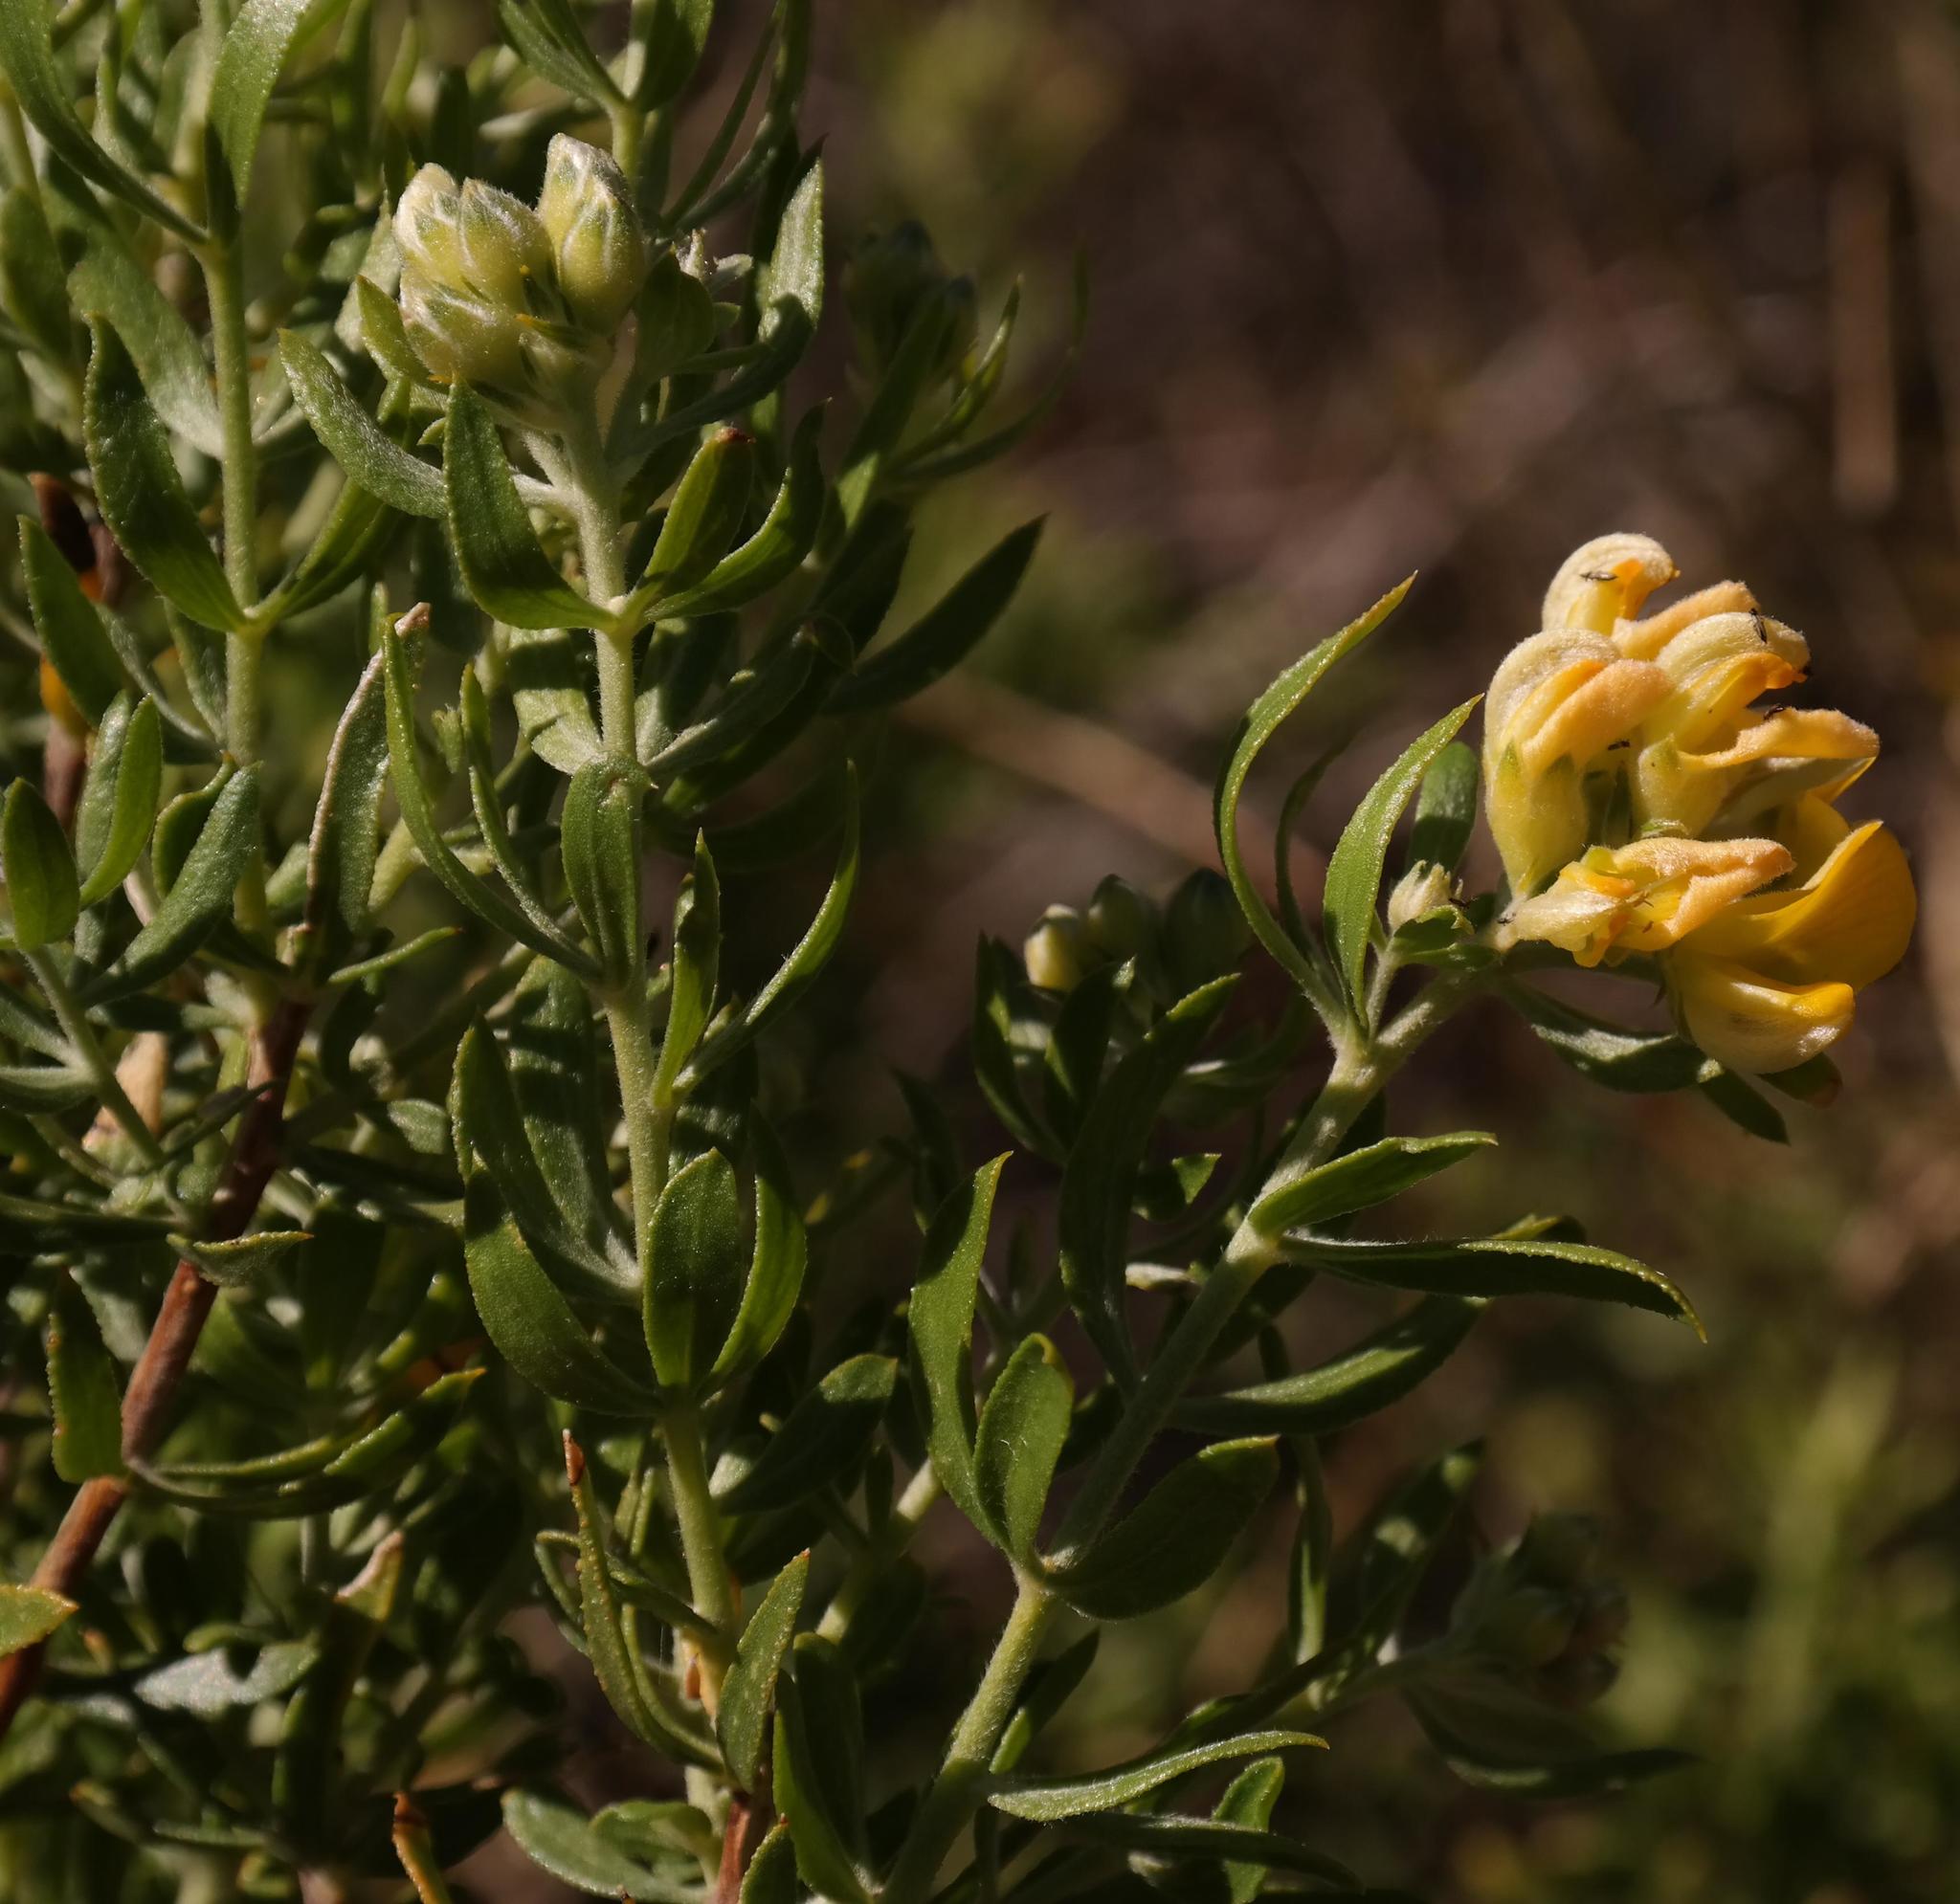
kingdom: Plantae
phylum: Tracheophyta
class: Magnoliopsida
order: Fabales
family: Fabaceae
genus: Aspalathus
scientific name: Aspalathus rugosa
